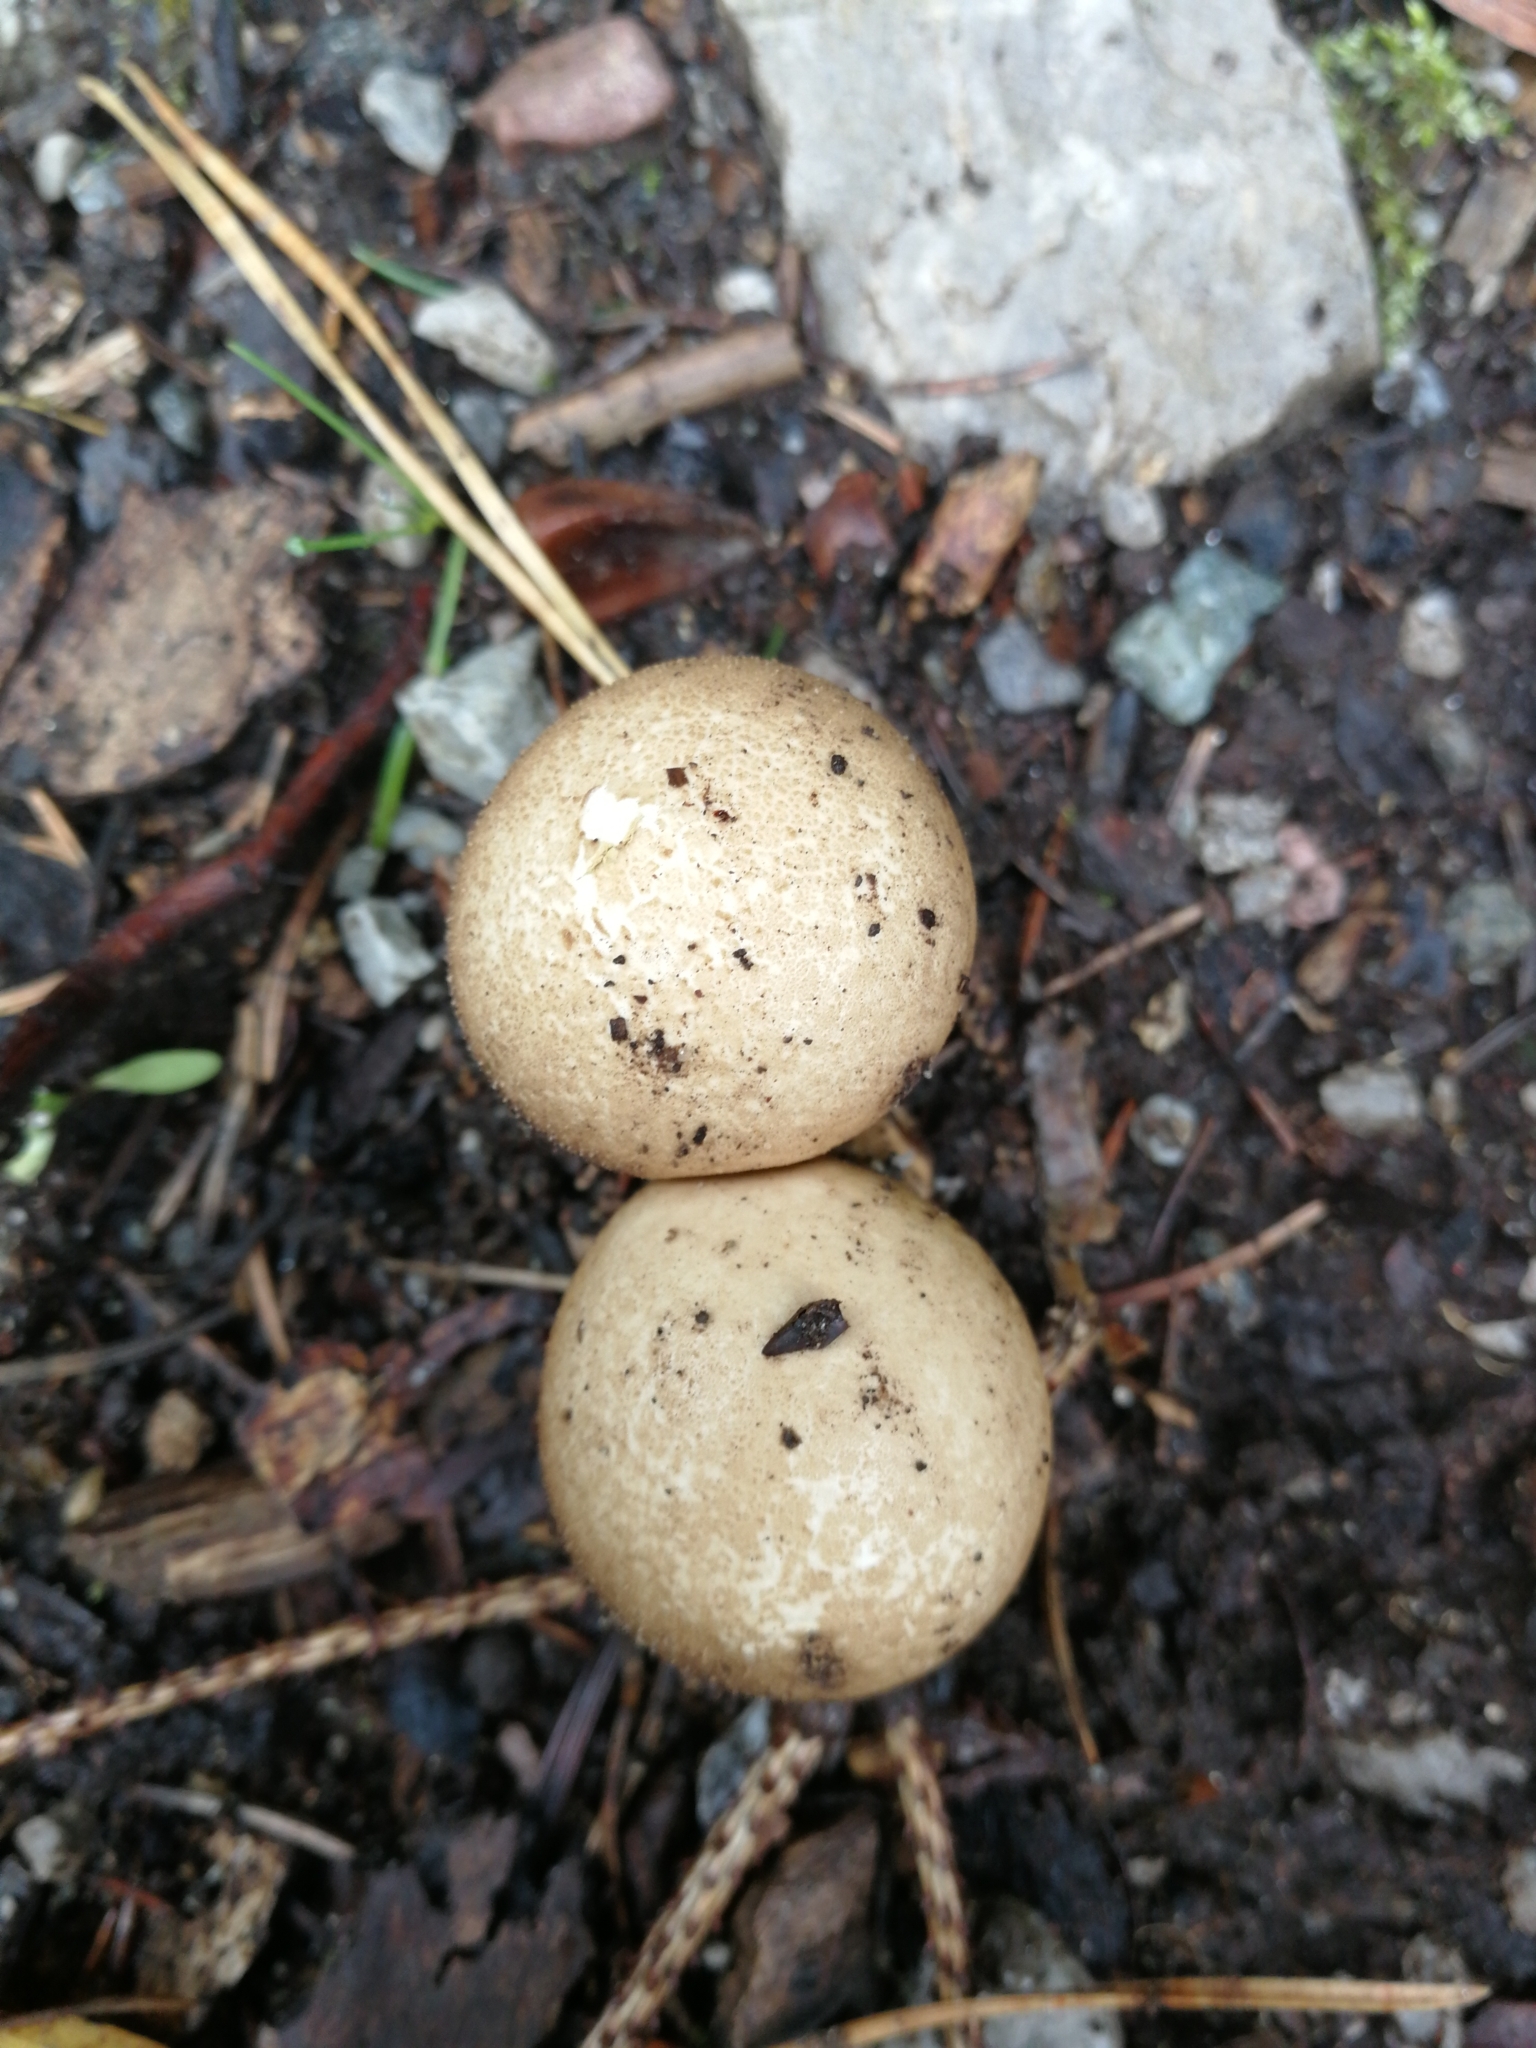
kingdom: Fungi
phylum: Basidiomycota
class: Agaricomycetes
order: Agaricales
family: Lycoperdaceae
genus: Apioperdon
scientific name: Apioperdon pyriforme
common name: Pear-shaped puffball
